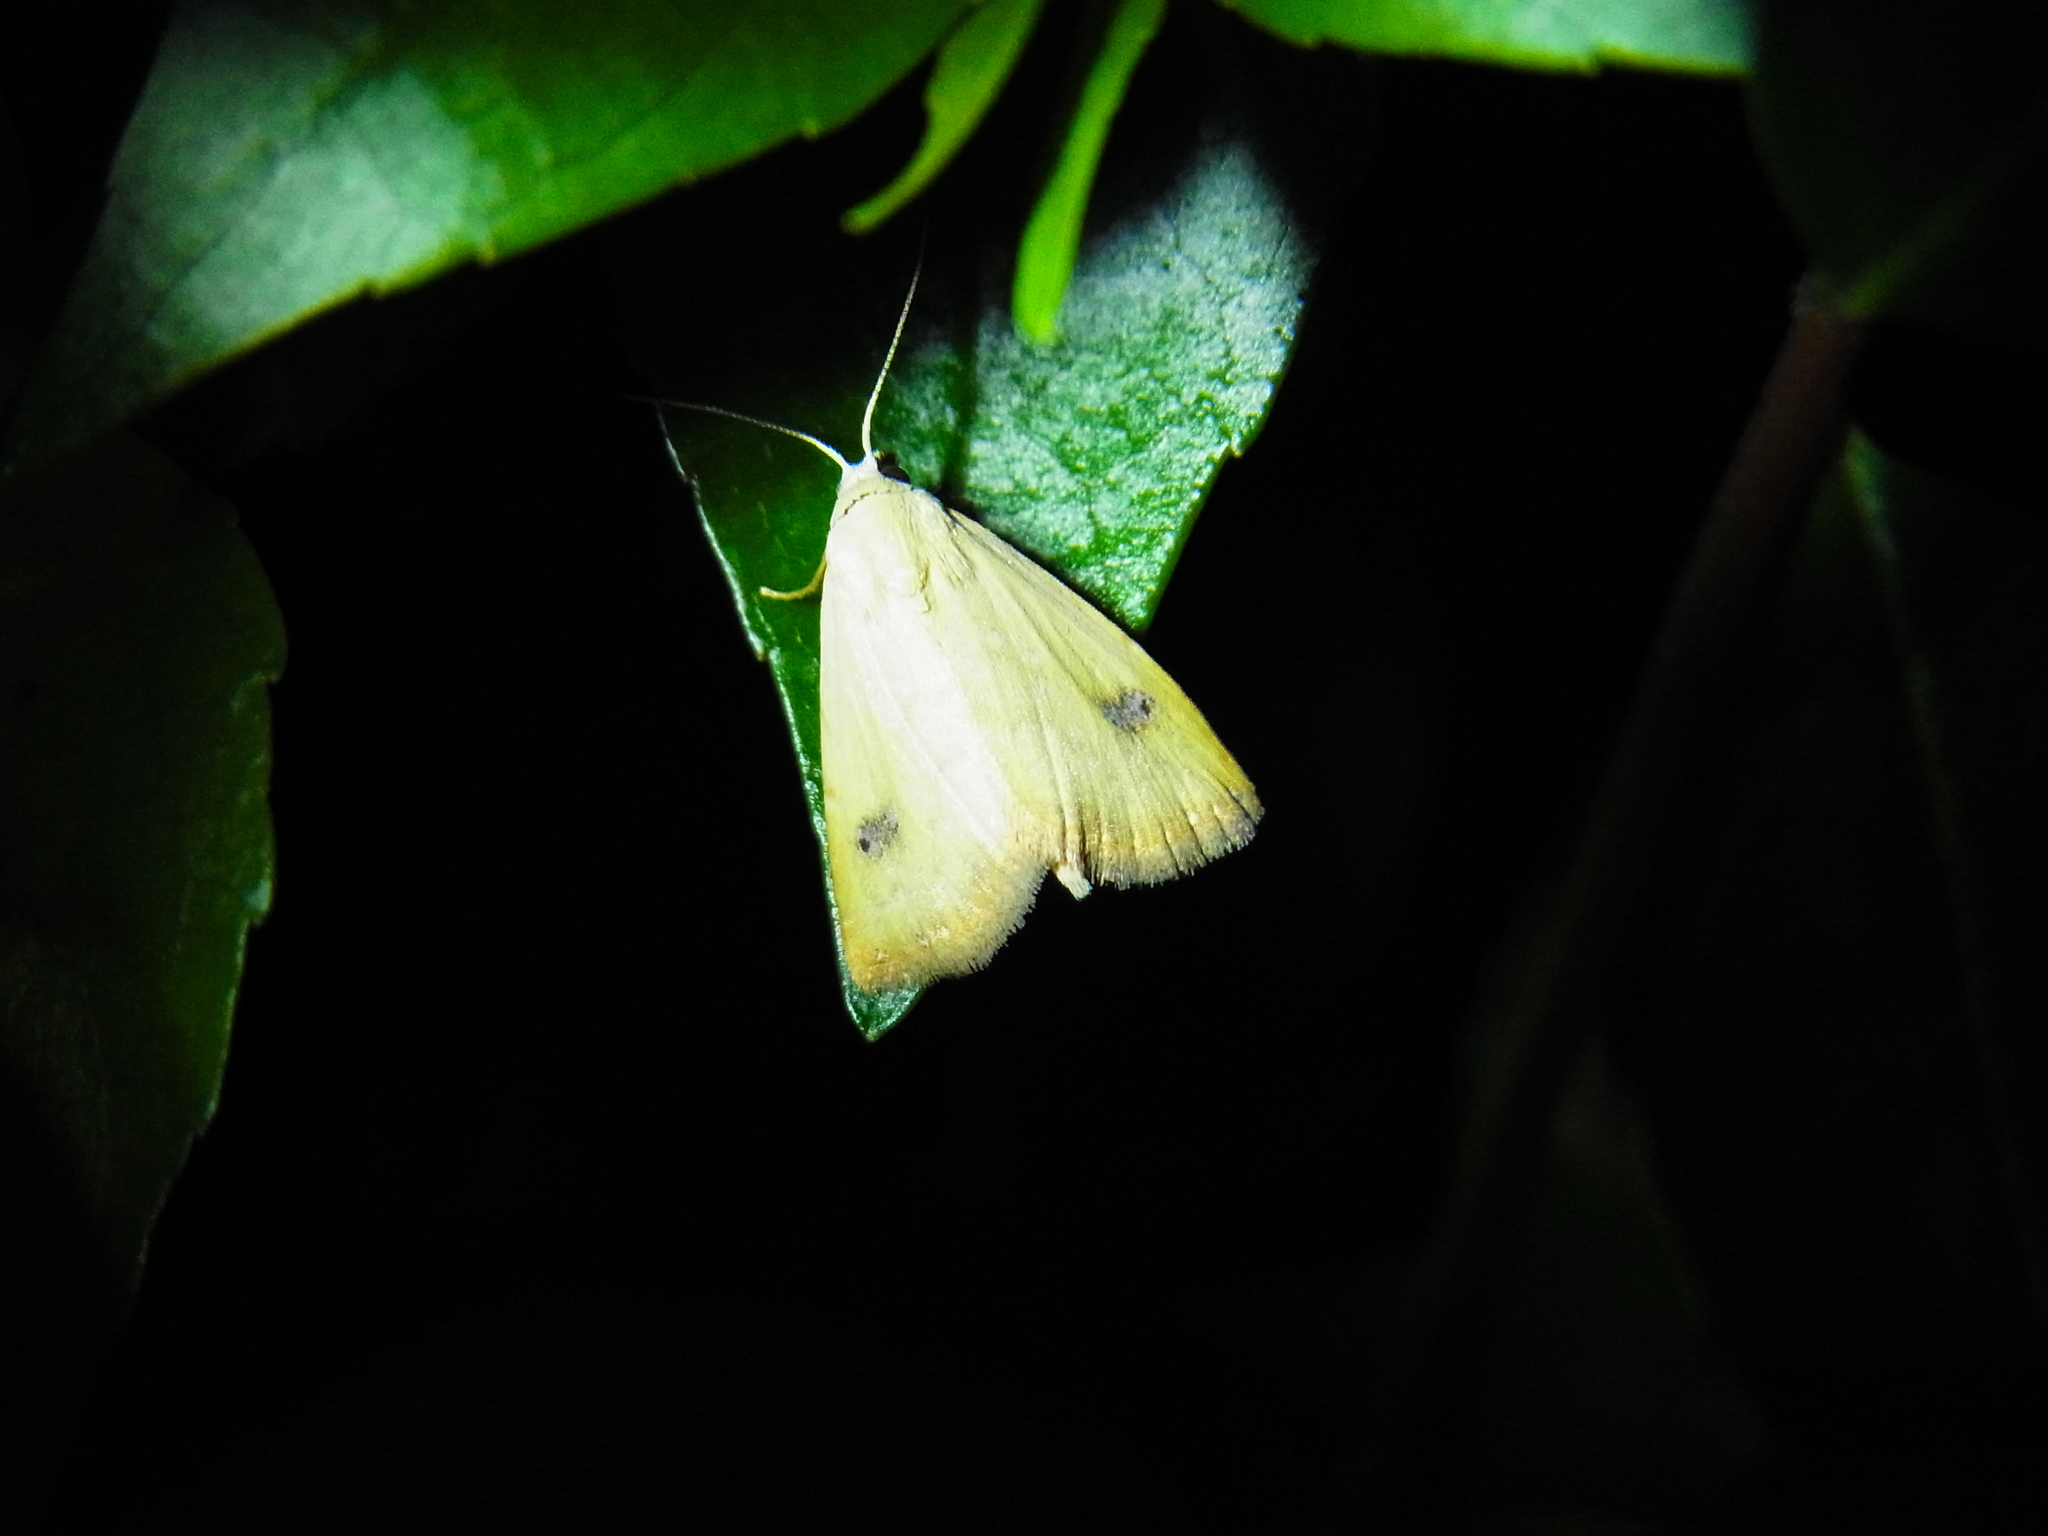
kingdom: Animalia
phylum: Arthropoda
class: Insecta
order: Lepidoptera
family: Erebidae
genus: Rivula
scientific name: Rivula sericealis
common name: Straw dot
